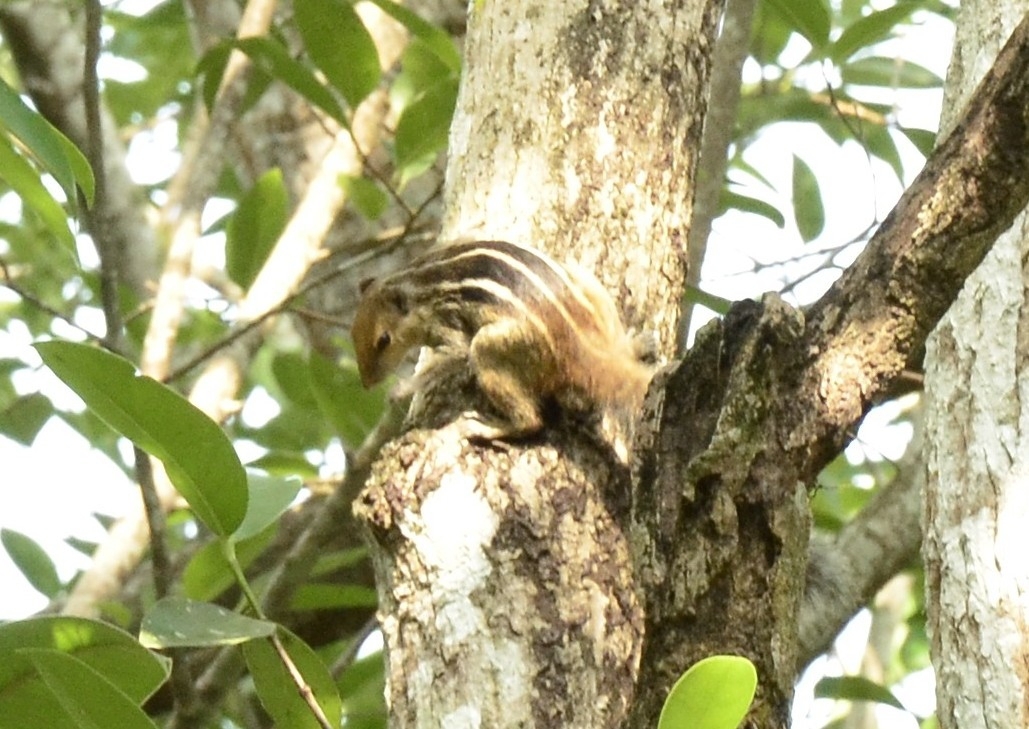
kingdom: Animalia
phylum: Chordata
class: Mammalia
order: Rodentia
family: Sciuridae
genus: Funambulus
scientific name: Funambulus tristriatus
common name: Jungle palm squirrel
